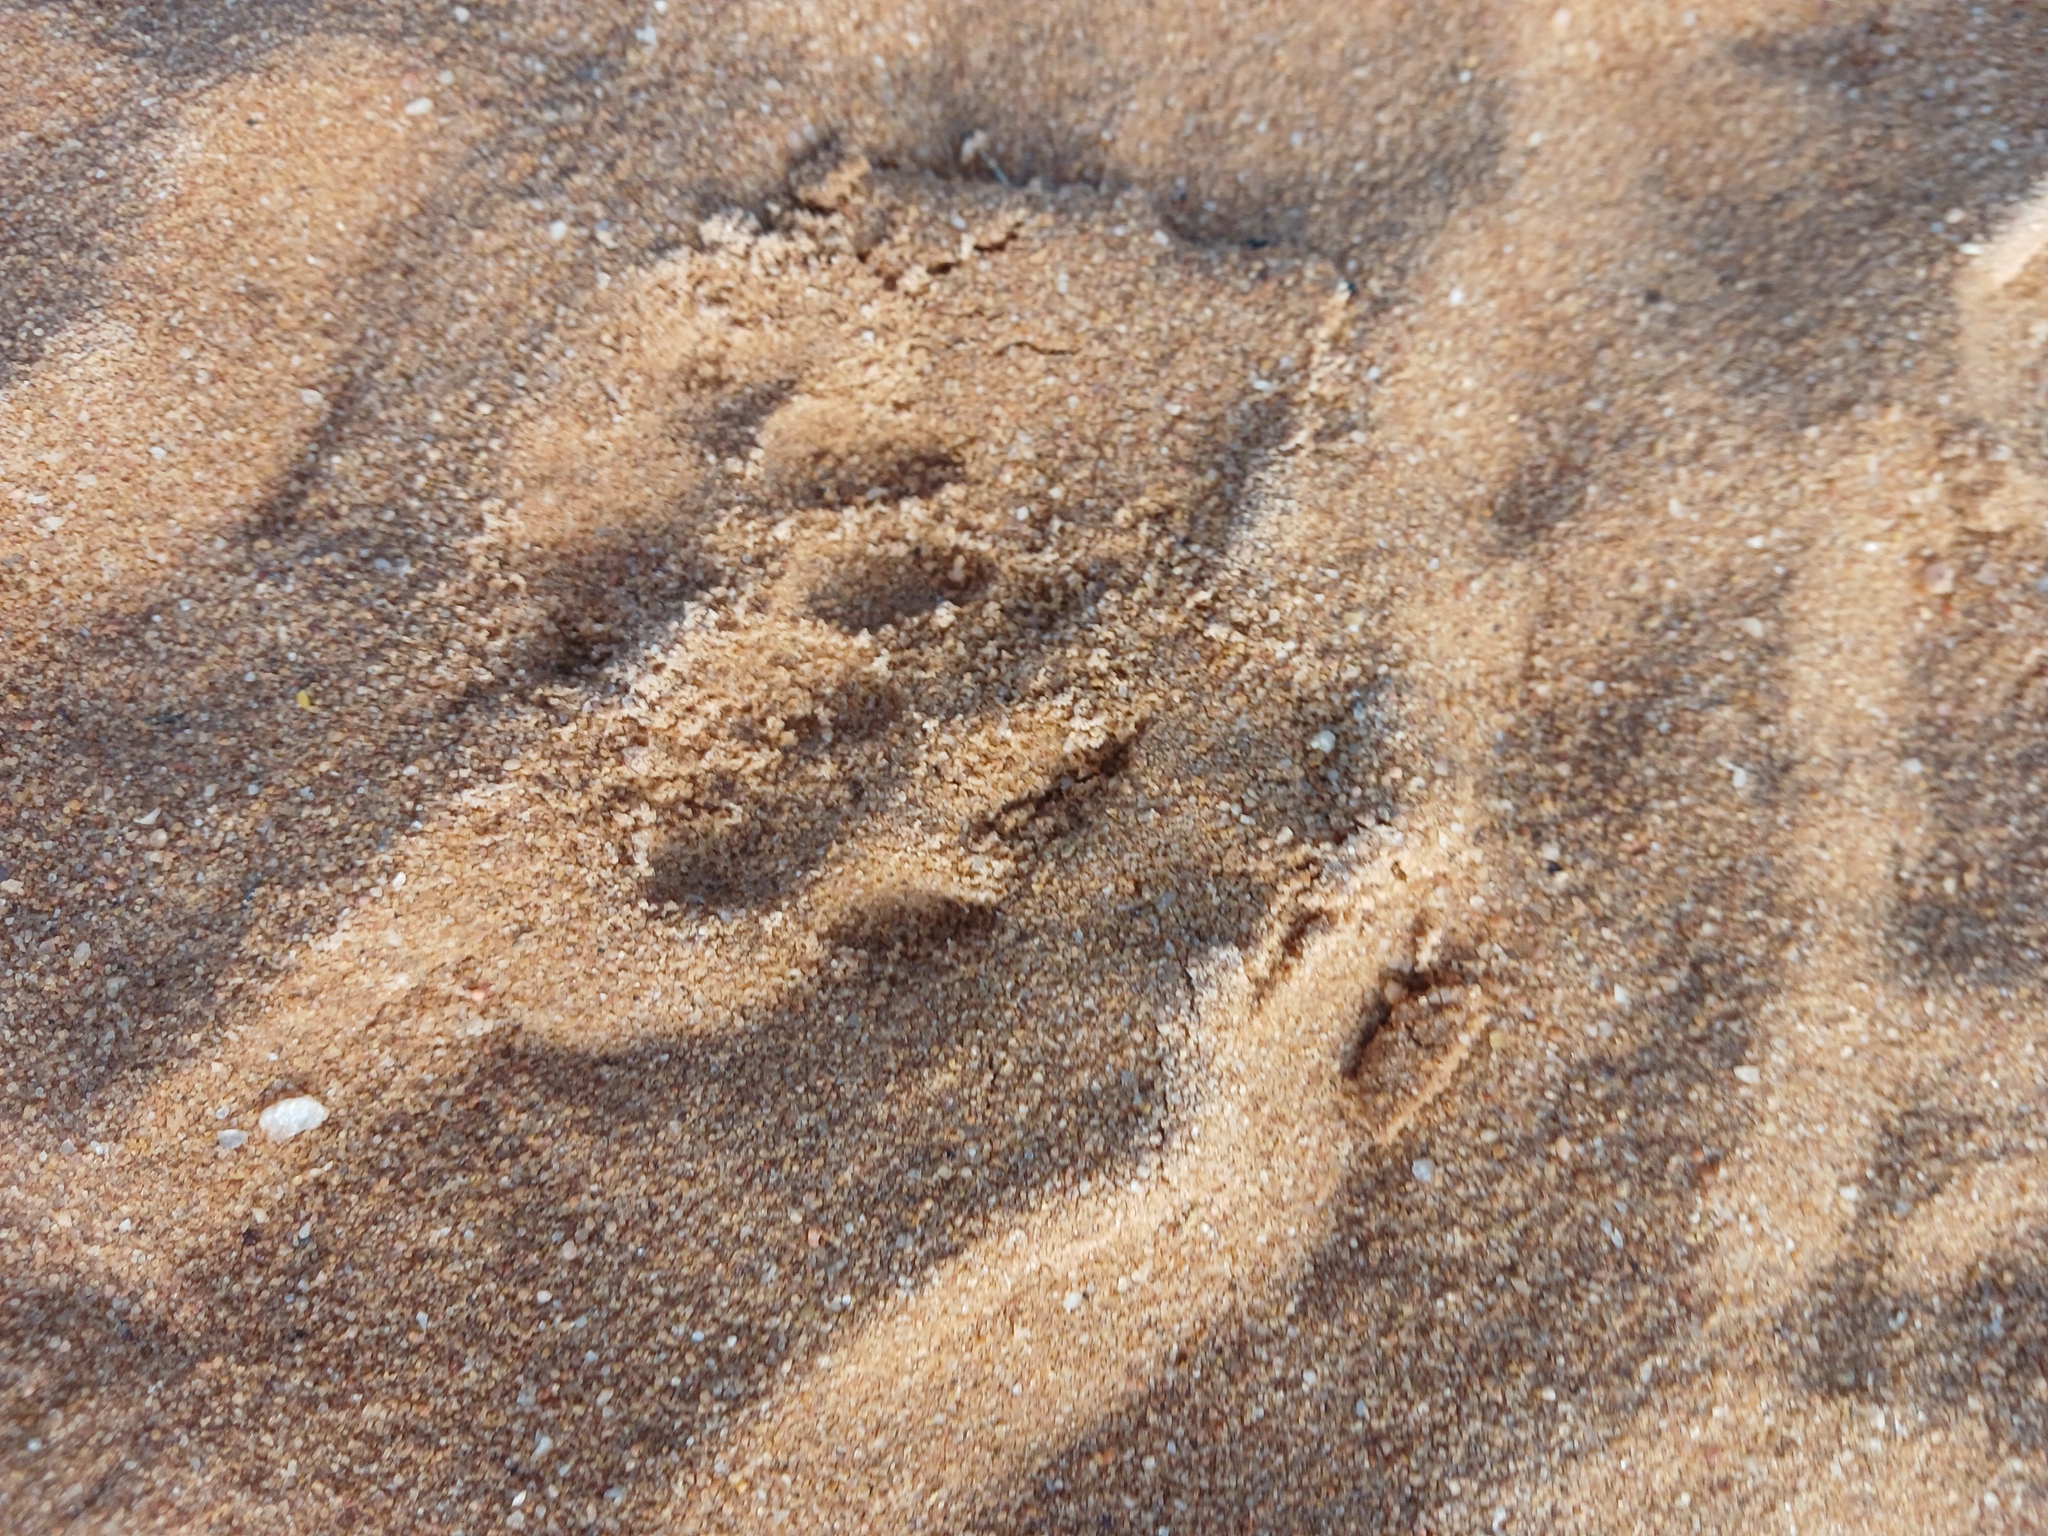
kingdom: Animalia
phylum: Chordata
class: Mammalia
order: Carnivora
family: Felidae
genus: Caracal
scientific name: Caracal caracal
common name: Caracal
